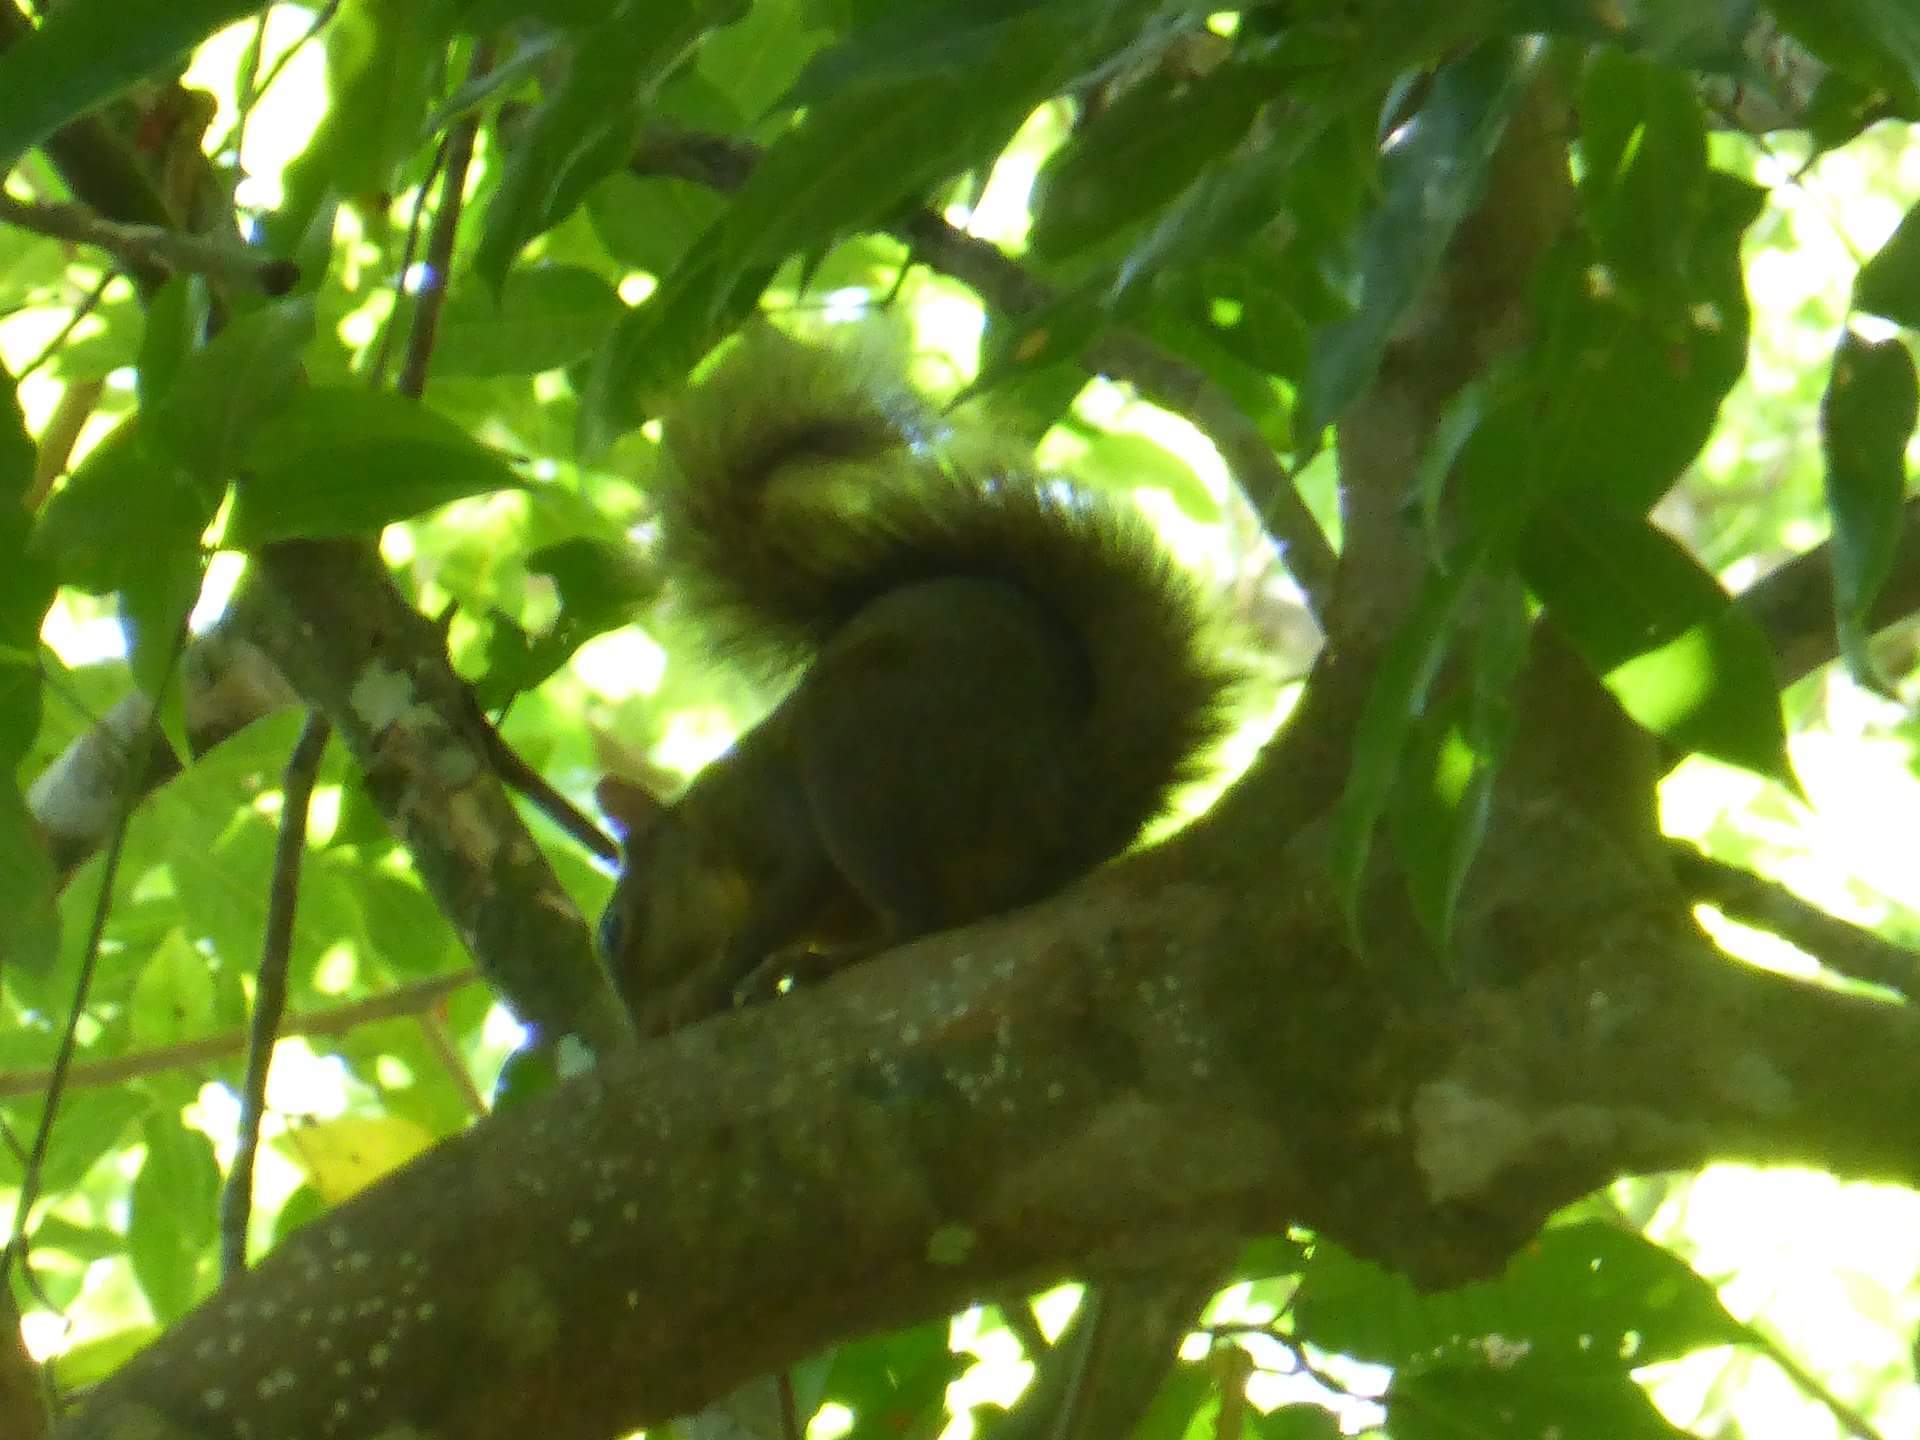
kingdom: Animalia
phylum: Chordata
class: Mammalia
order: Rodentia
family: Sciuridae
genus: Sciurus
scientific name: Sciurus aestuans
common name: Guianan squirrel
